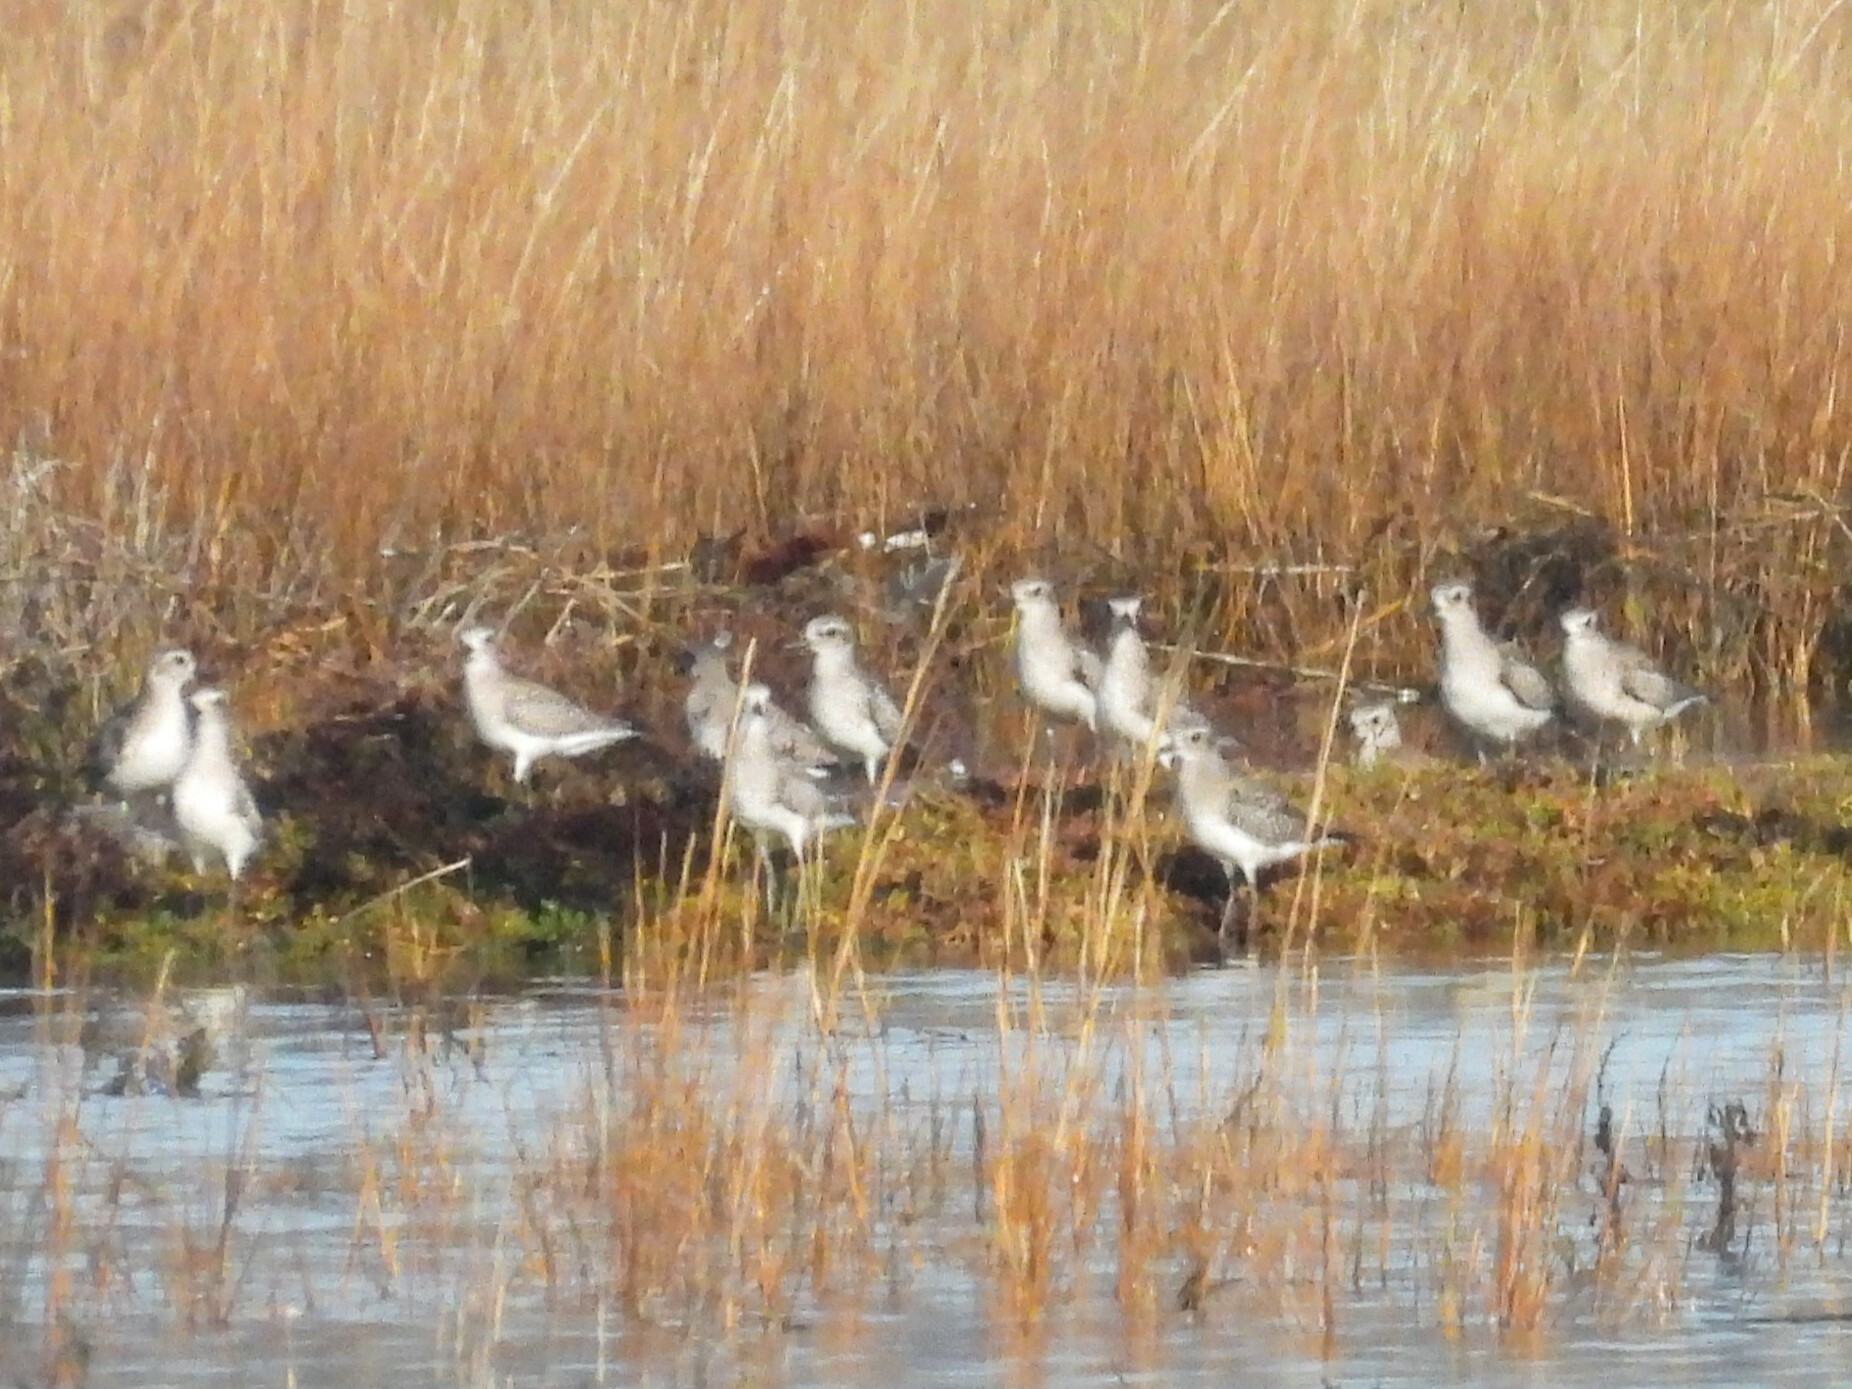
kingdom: Animalia
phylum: Chordata
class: Aves
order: Charadriiformes
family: Charadriidae
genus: Pluvialis
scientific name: Pluvialis squatarola
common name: Grey plover
